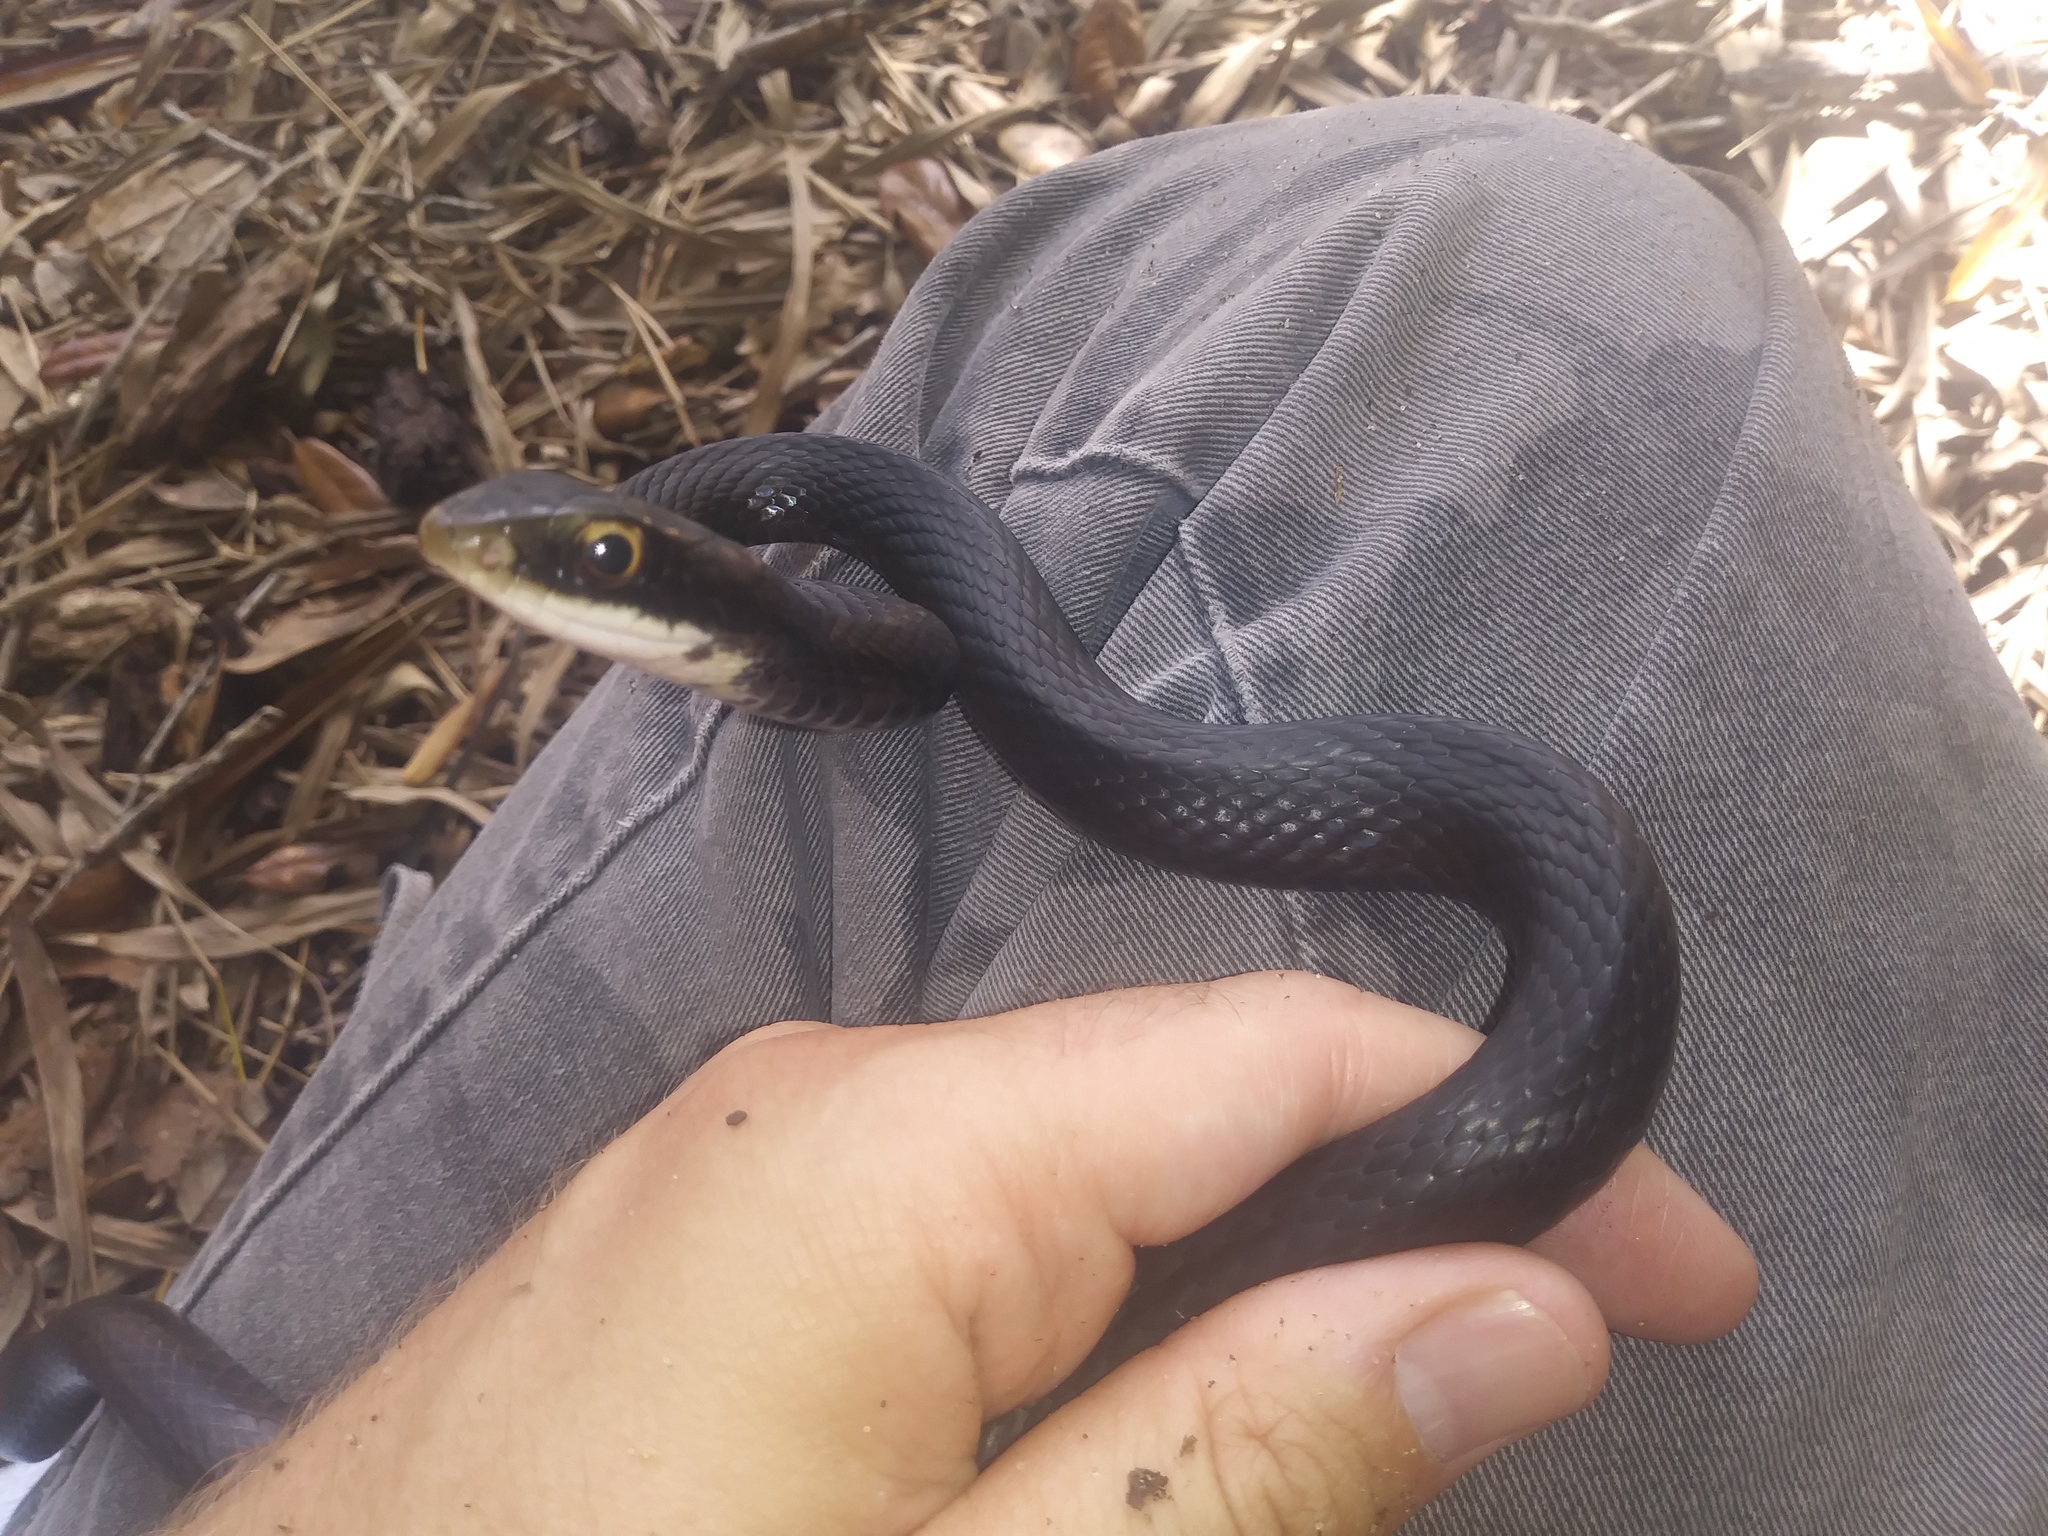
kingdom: Animalia
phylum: Chordata
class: Squamata
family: Colubridae
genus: Coluber
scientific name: Coluber constrictor
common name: Eastern racer
